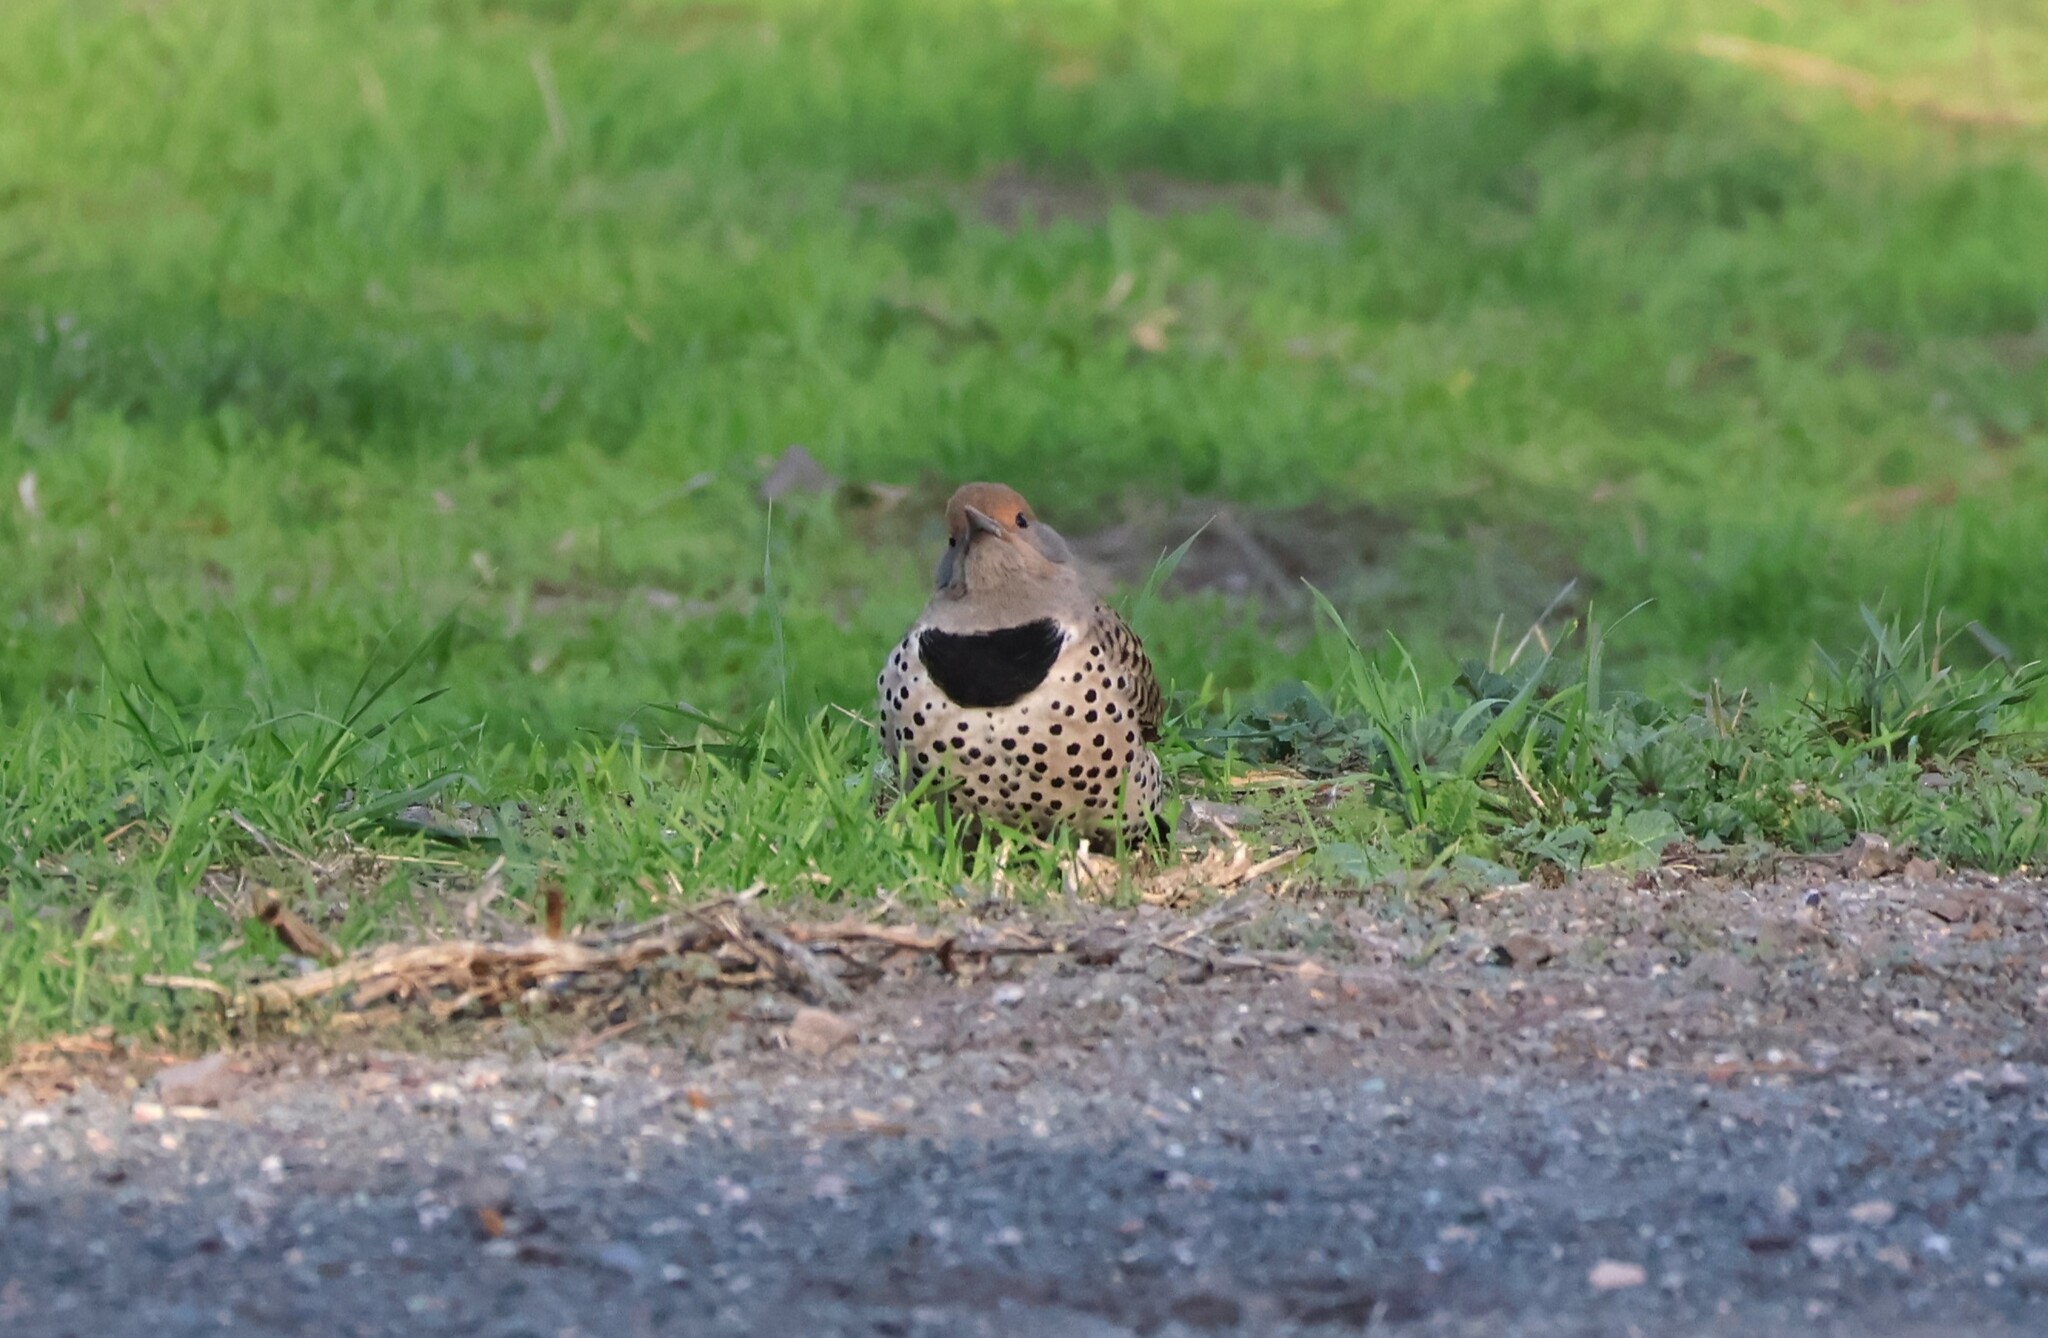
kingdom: Animalia
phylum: Chordata
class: Aves
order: Piciformes
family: Picidae
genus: Colaptes
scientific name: Colaptes auratus
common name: Northern flicker
